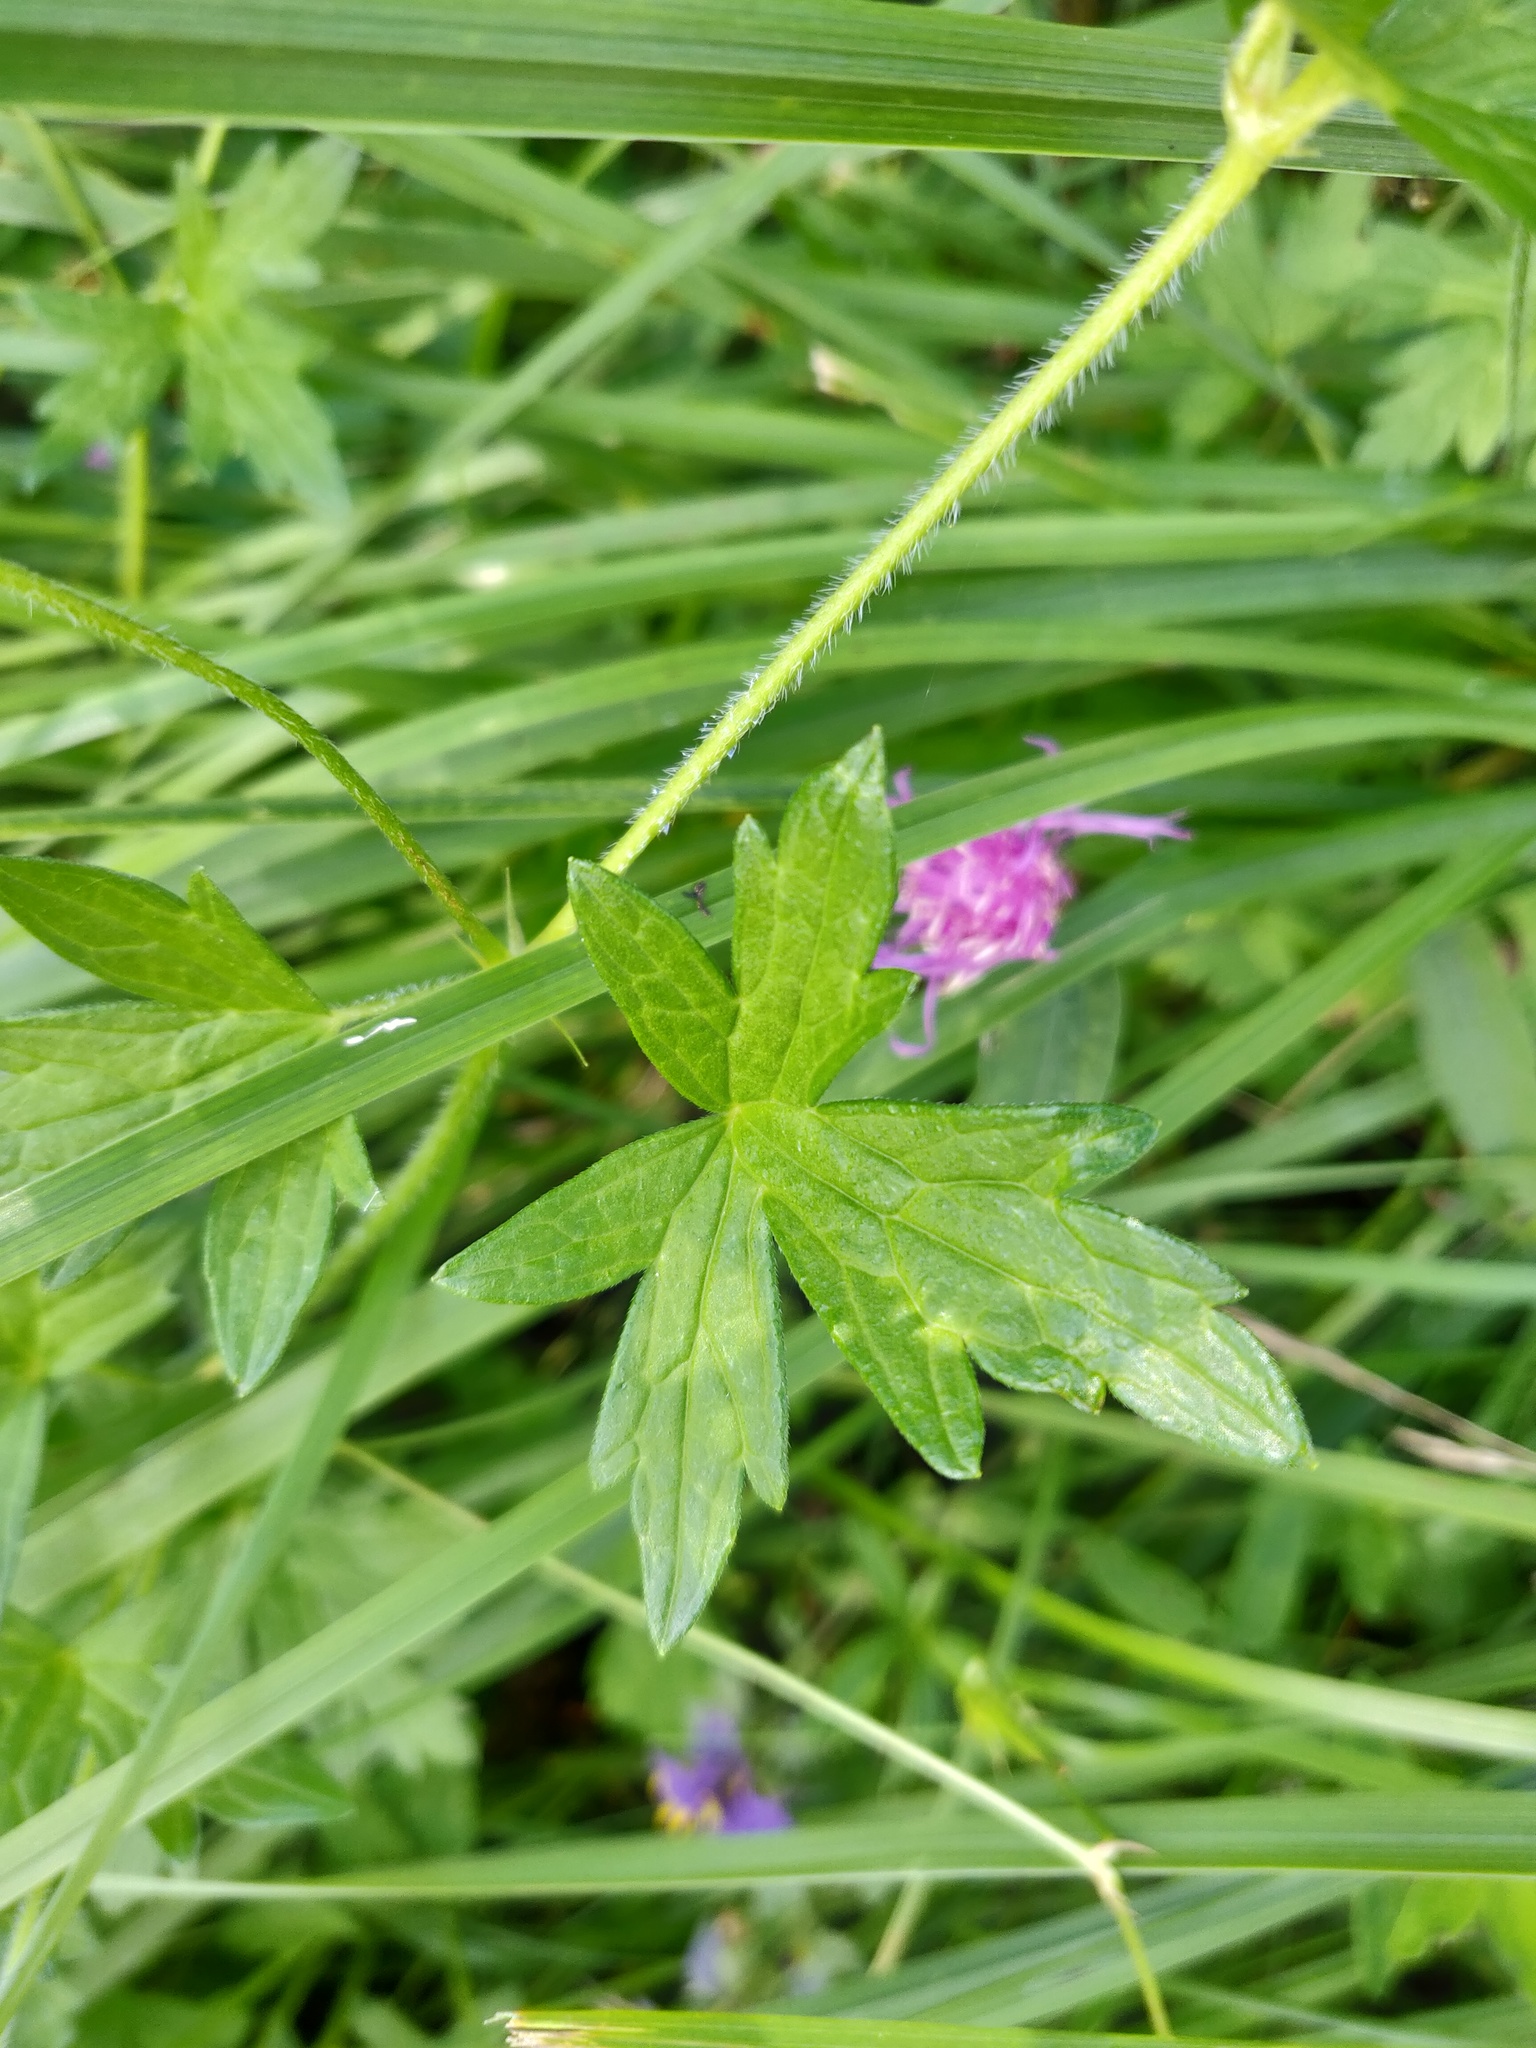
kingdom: Plantae
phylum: Tracheophyta
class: Magnoliopsida
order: Geraniales
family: Geraniaceae
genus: Geranium
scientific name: Geranium palustre
